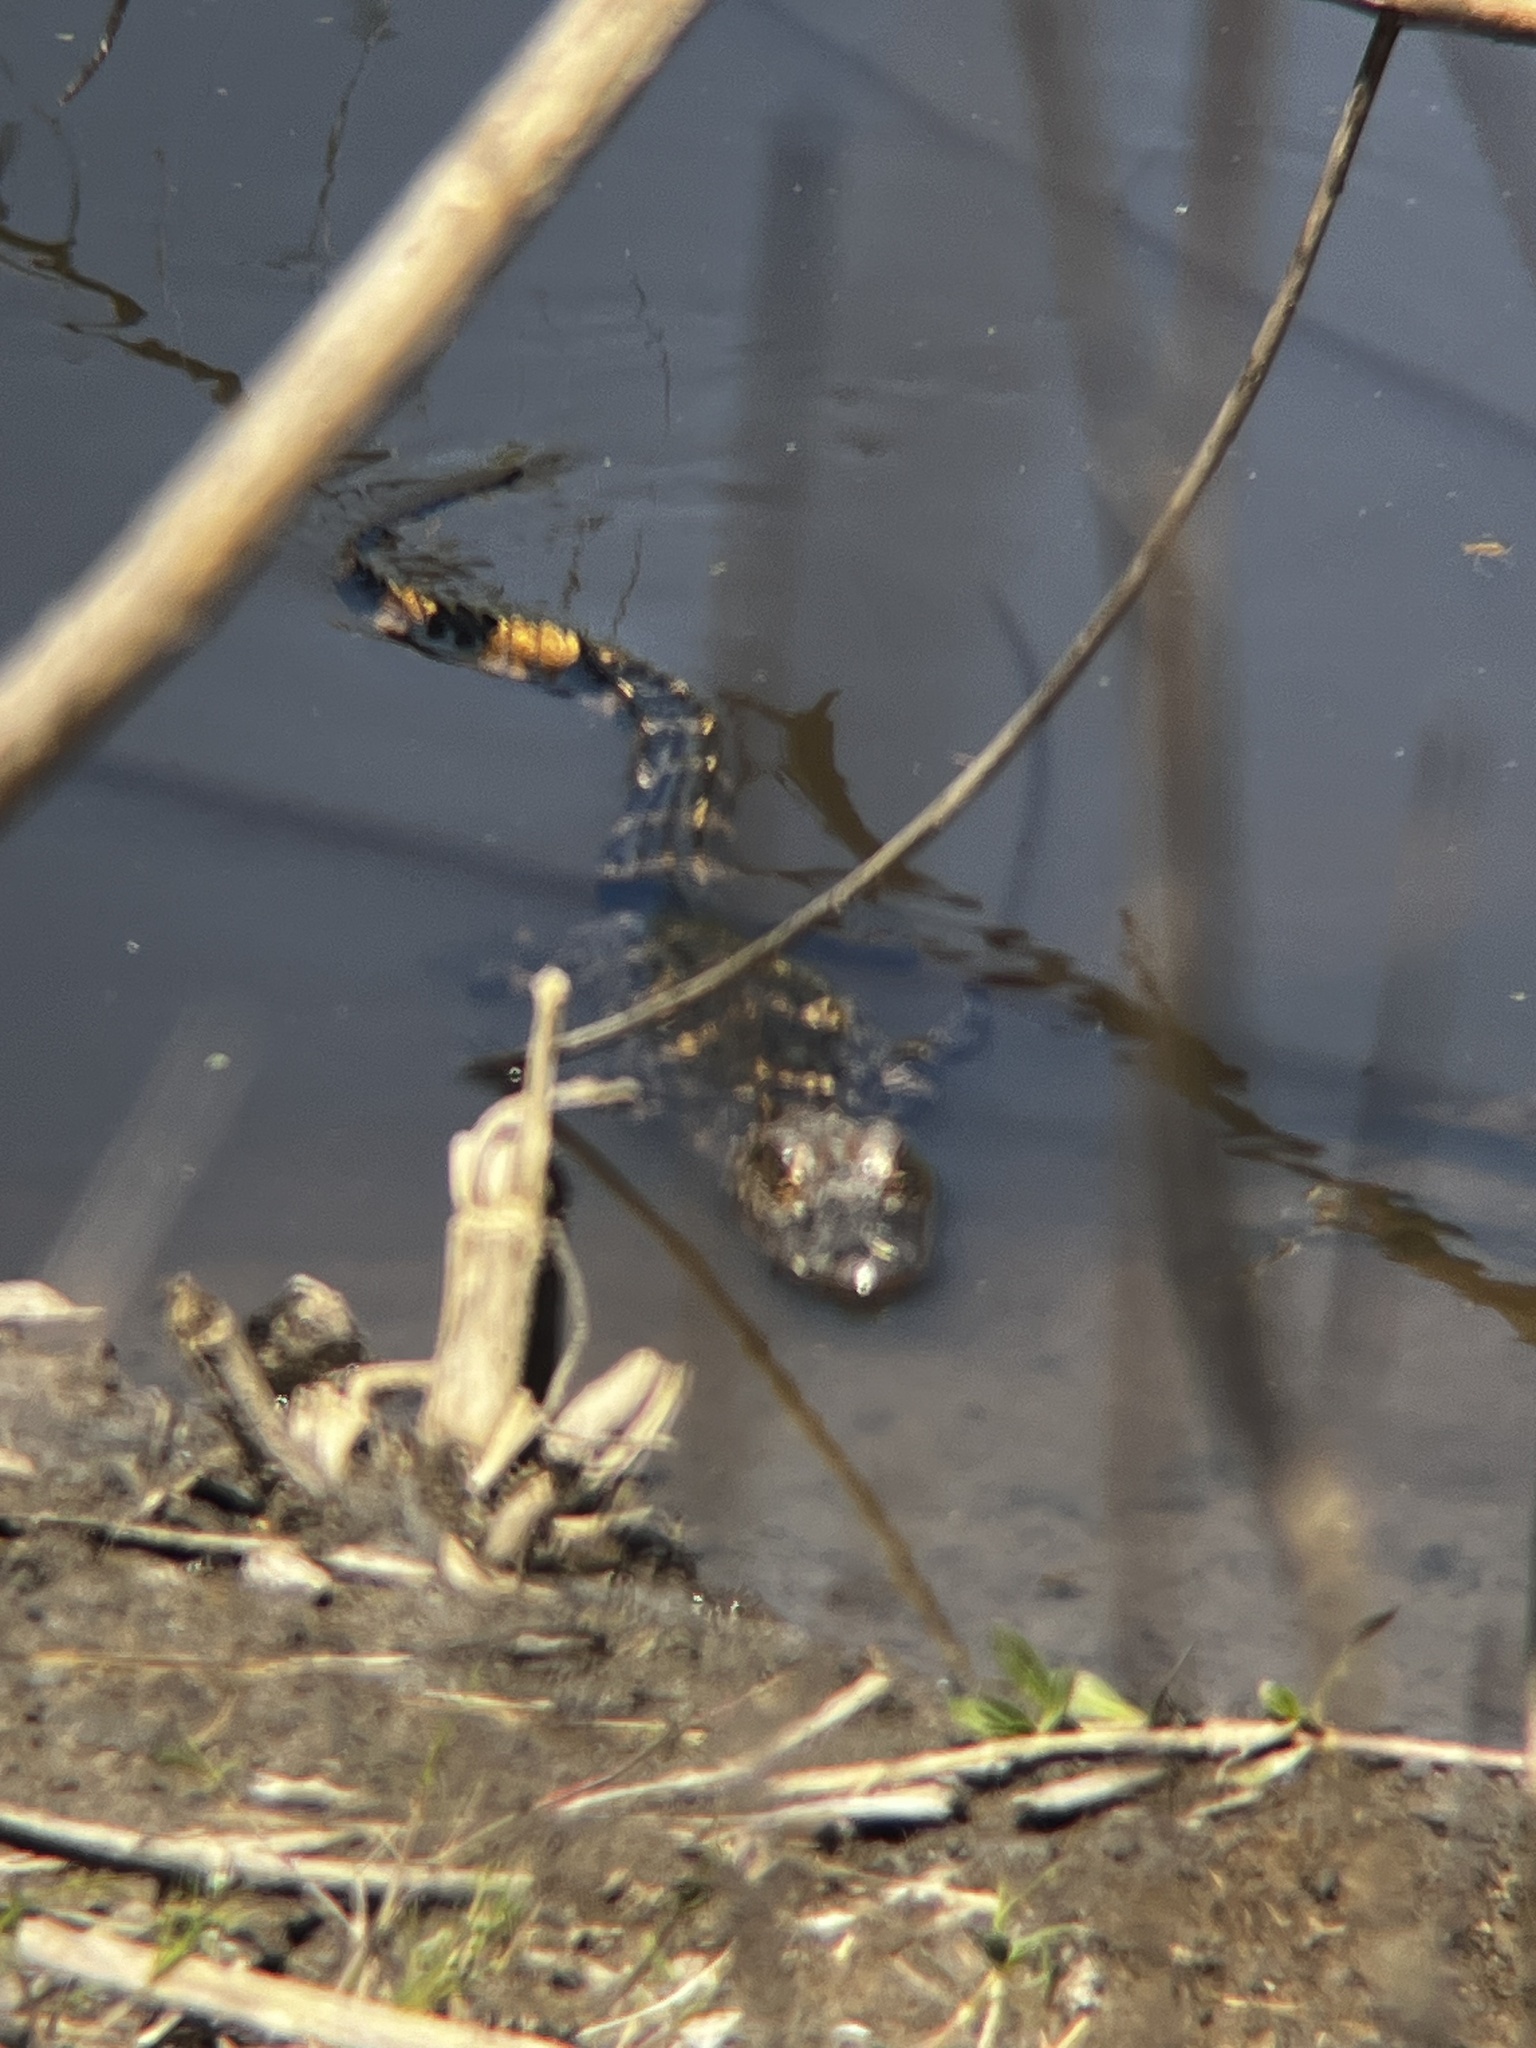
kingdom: Animalia
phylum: Chordata
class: Crocodylia
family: Alligatoridae
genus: Alligator
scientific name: Alligator mississippiensis
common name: American alligator
